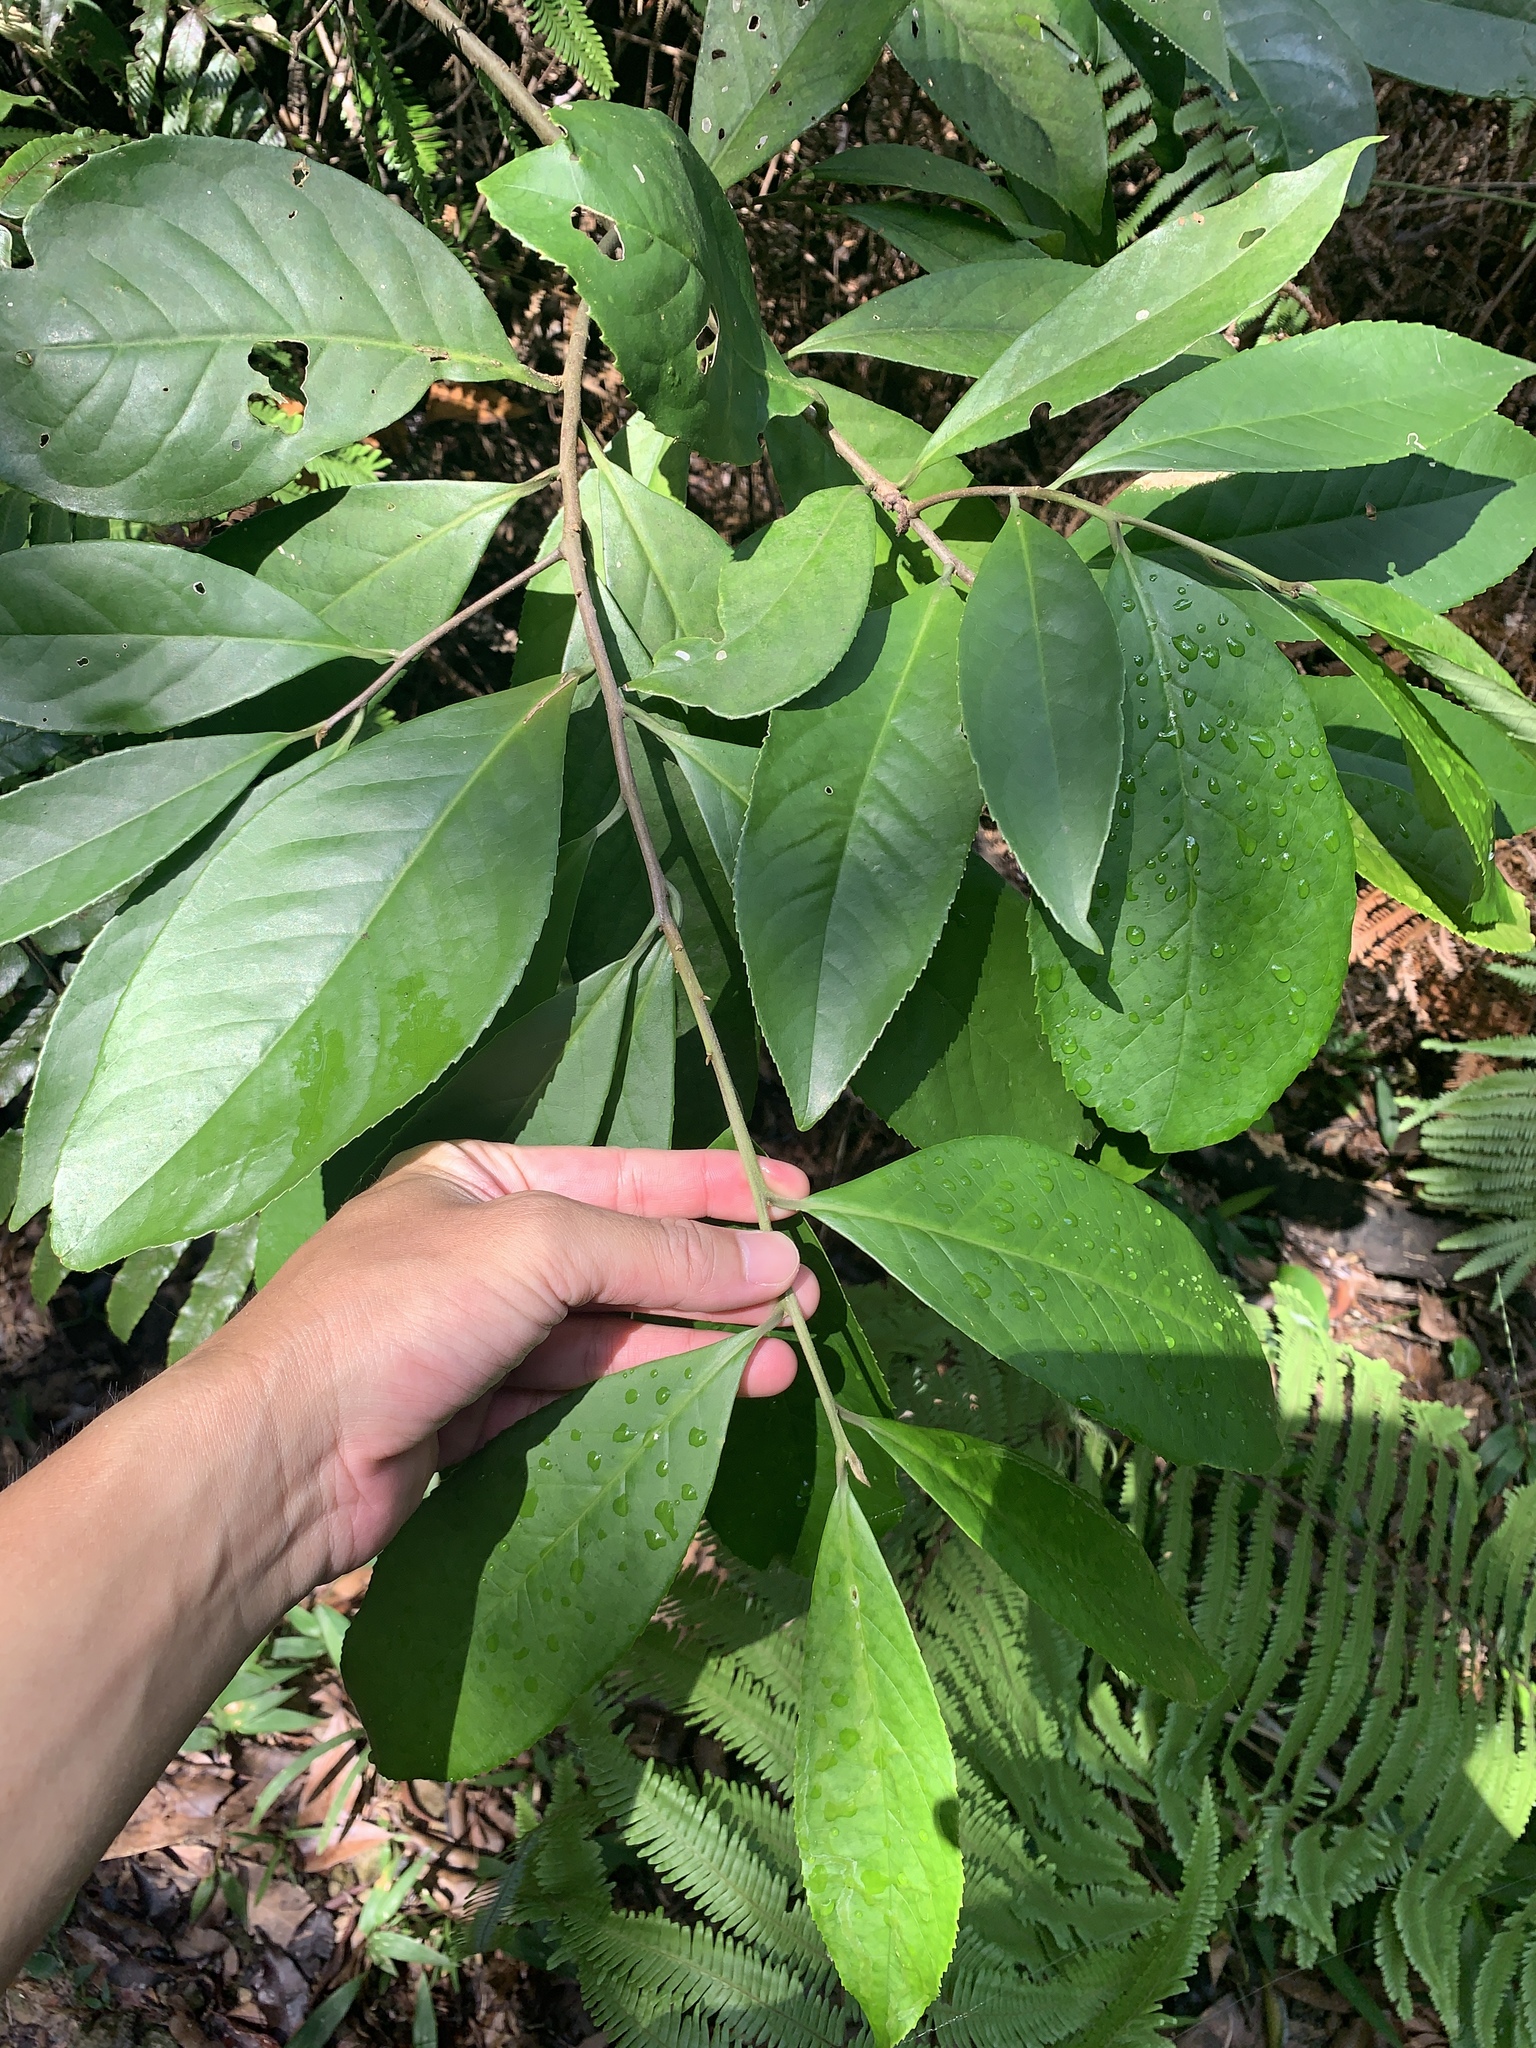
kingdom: Plantae
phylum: Tracheophyta
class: Magnoliopsida
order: Ericales
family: Symplocaceae
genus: Symplocos
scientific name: Symplocos acuminata
